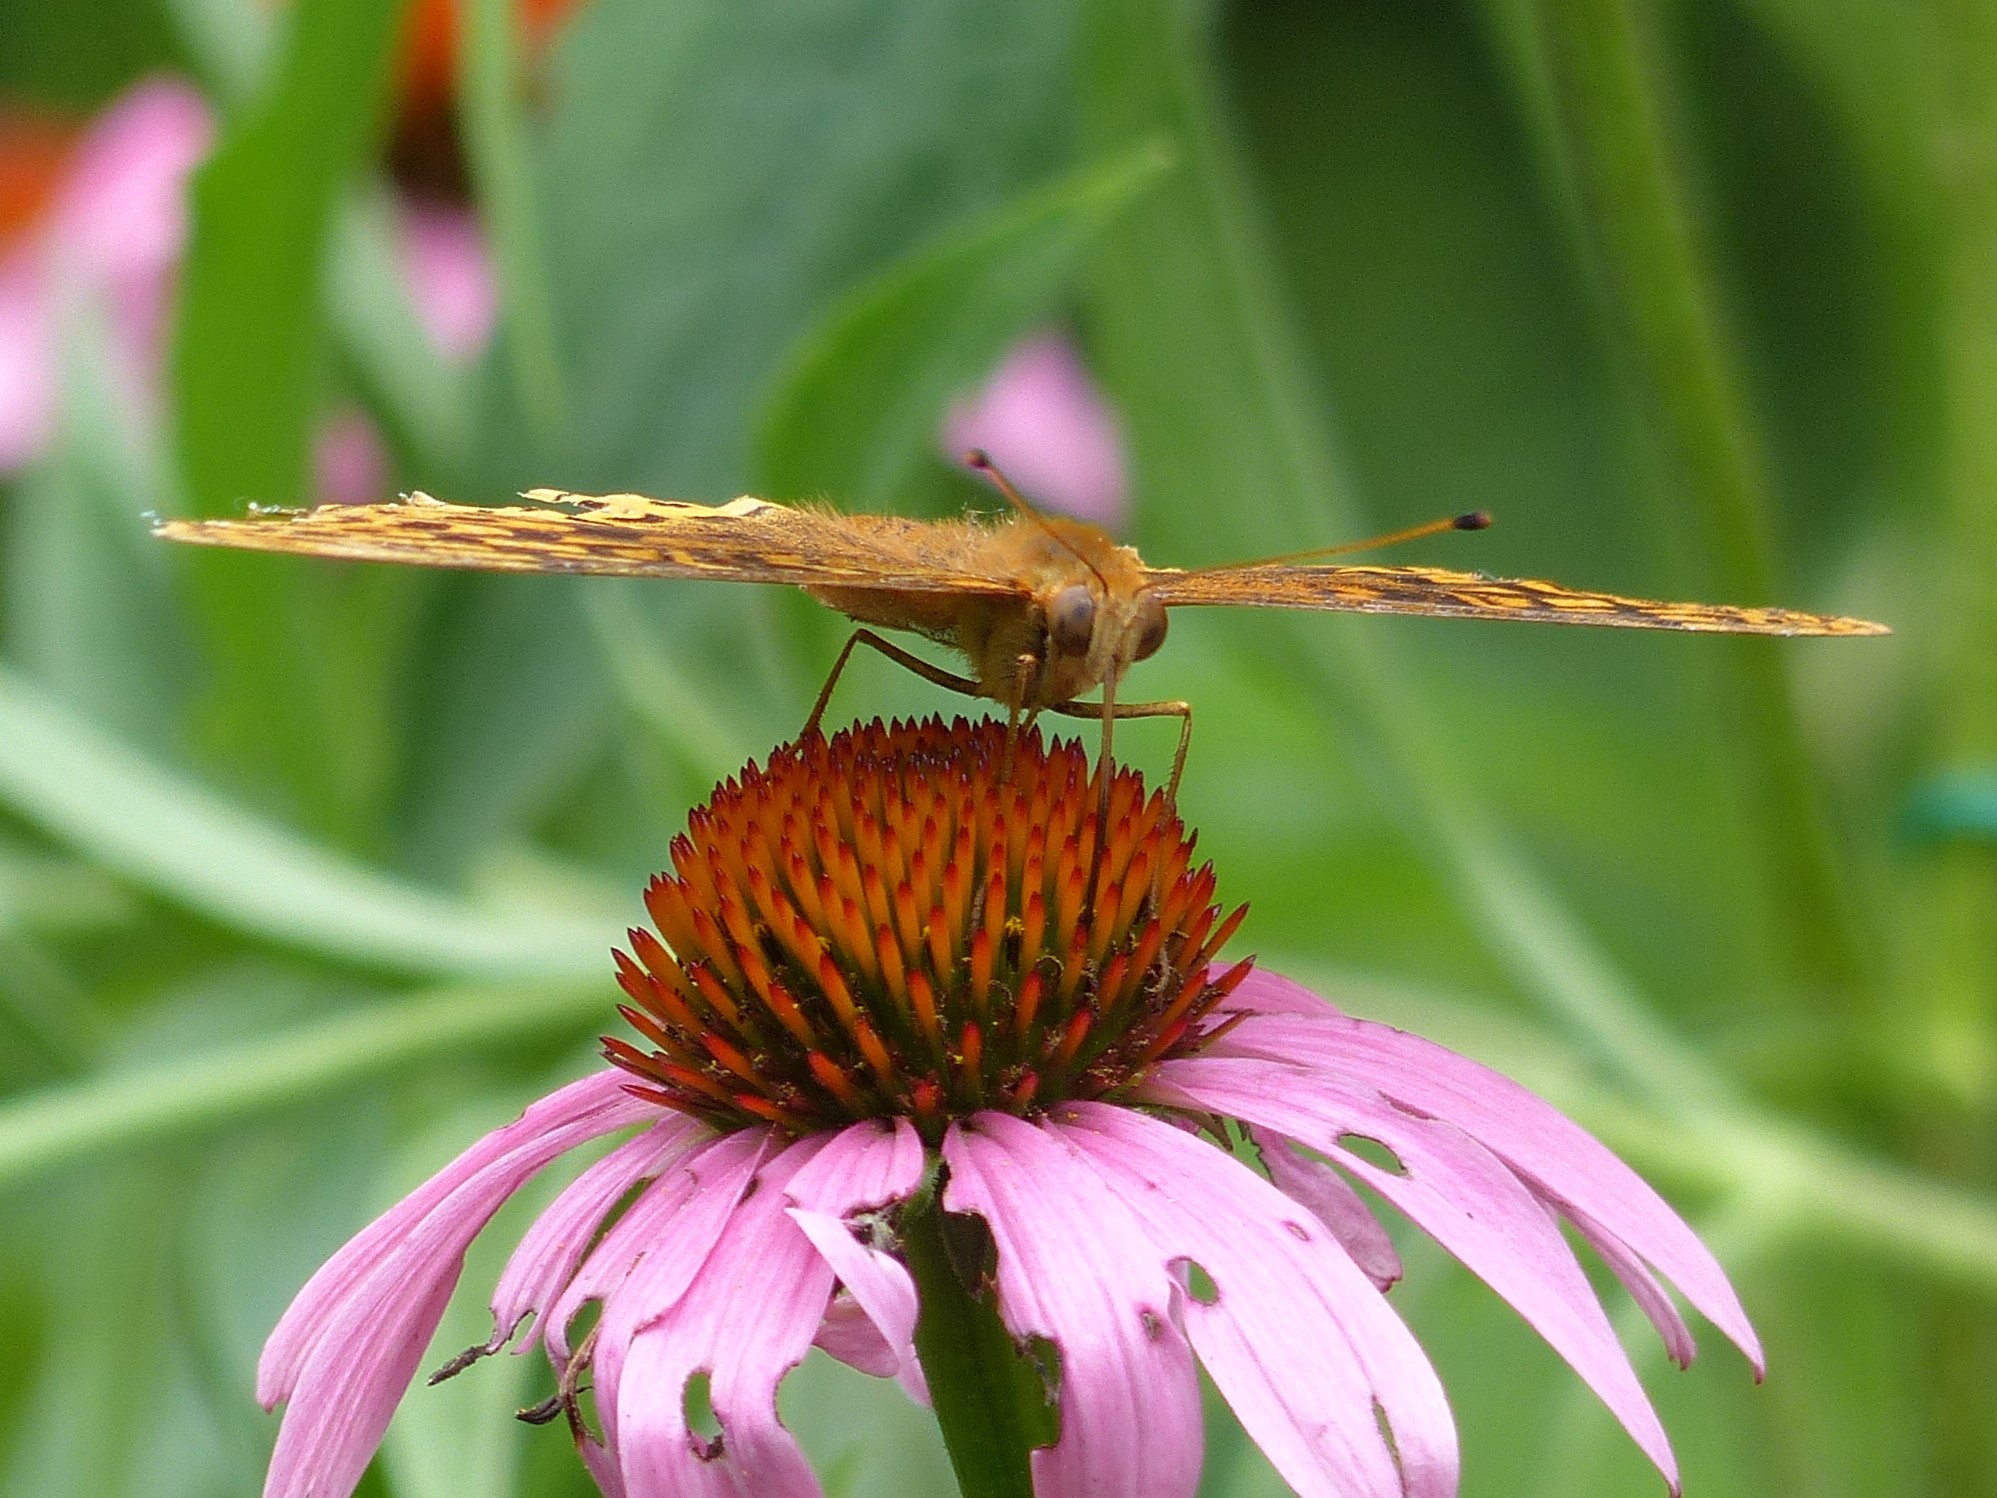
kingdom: Animalia
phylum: Arthropoda
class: Insecta
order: Lepidoptera
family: Nymphalidae
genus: Speyeria
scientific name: Speyeria cybele
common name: Great spangled fritillary
